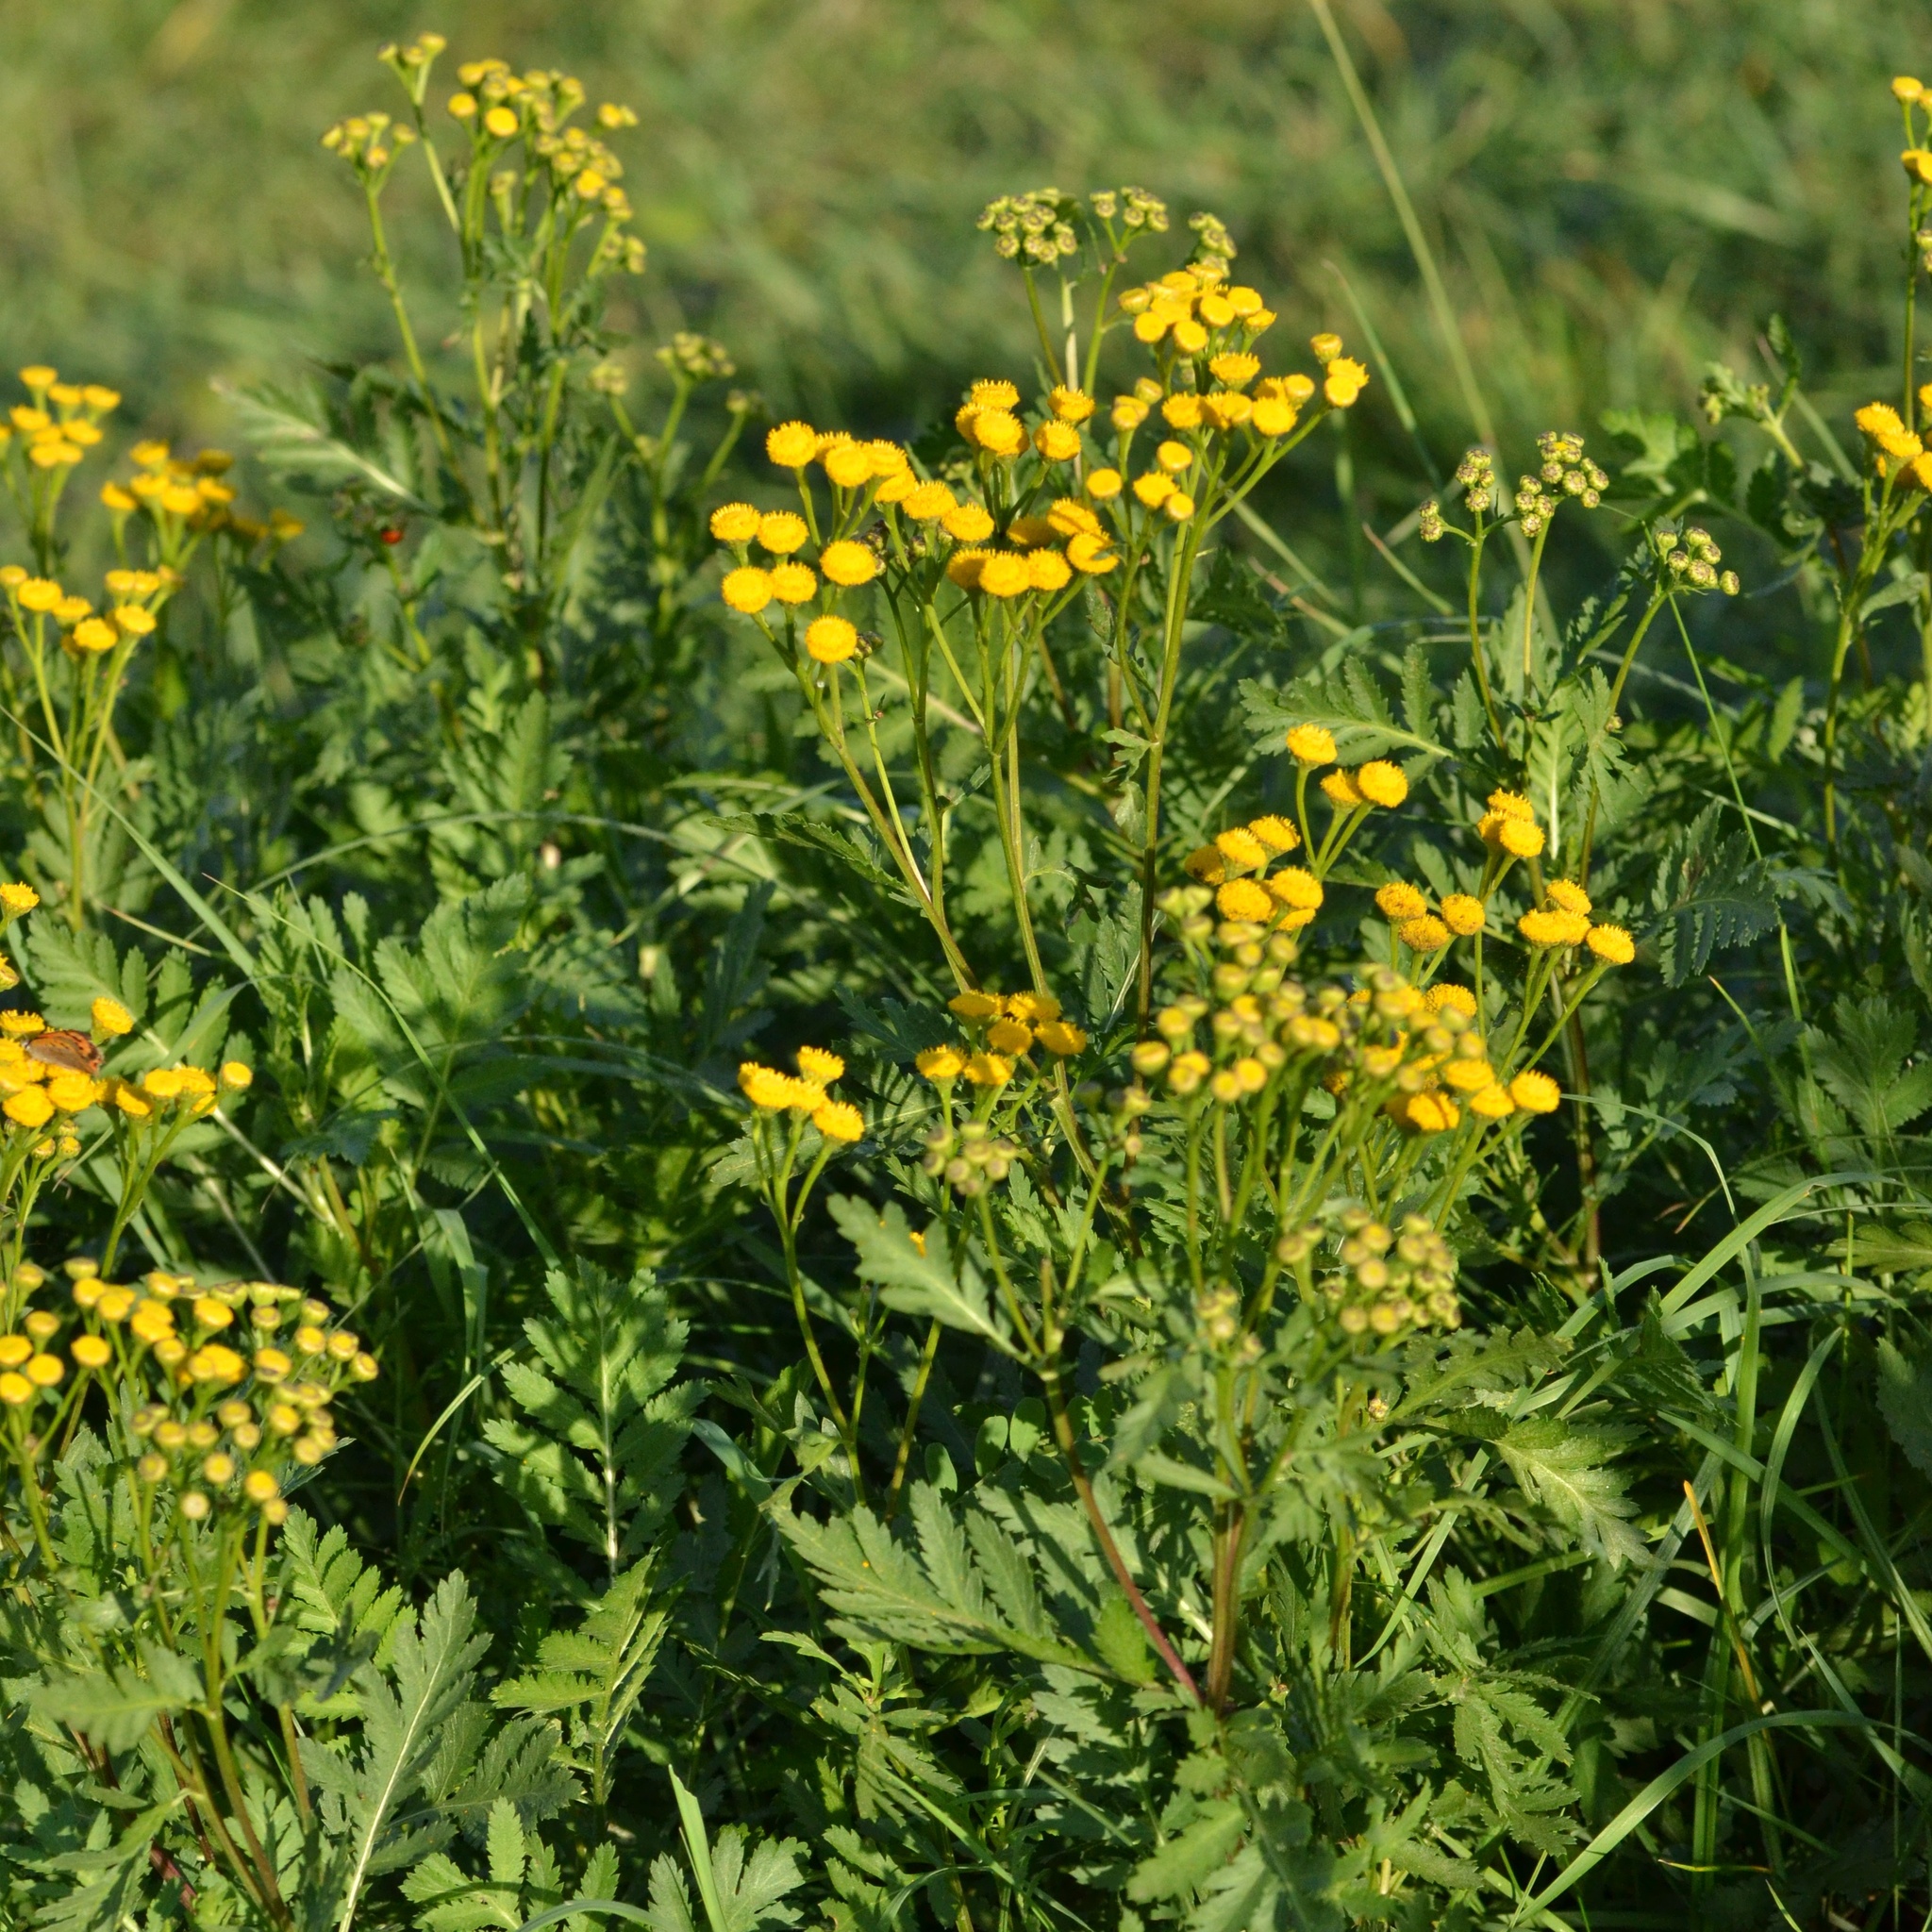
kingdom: Plantae
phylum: Tracheophyta
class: Magnoliopsida
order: Asterales
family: Asteraceae
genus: Tanacetum
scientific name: Tanacetum vulgare
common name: Common tansy
